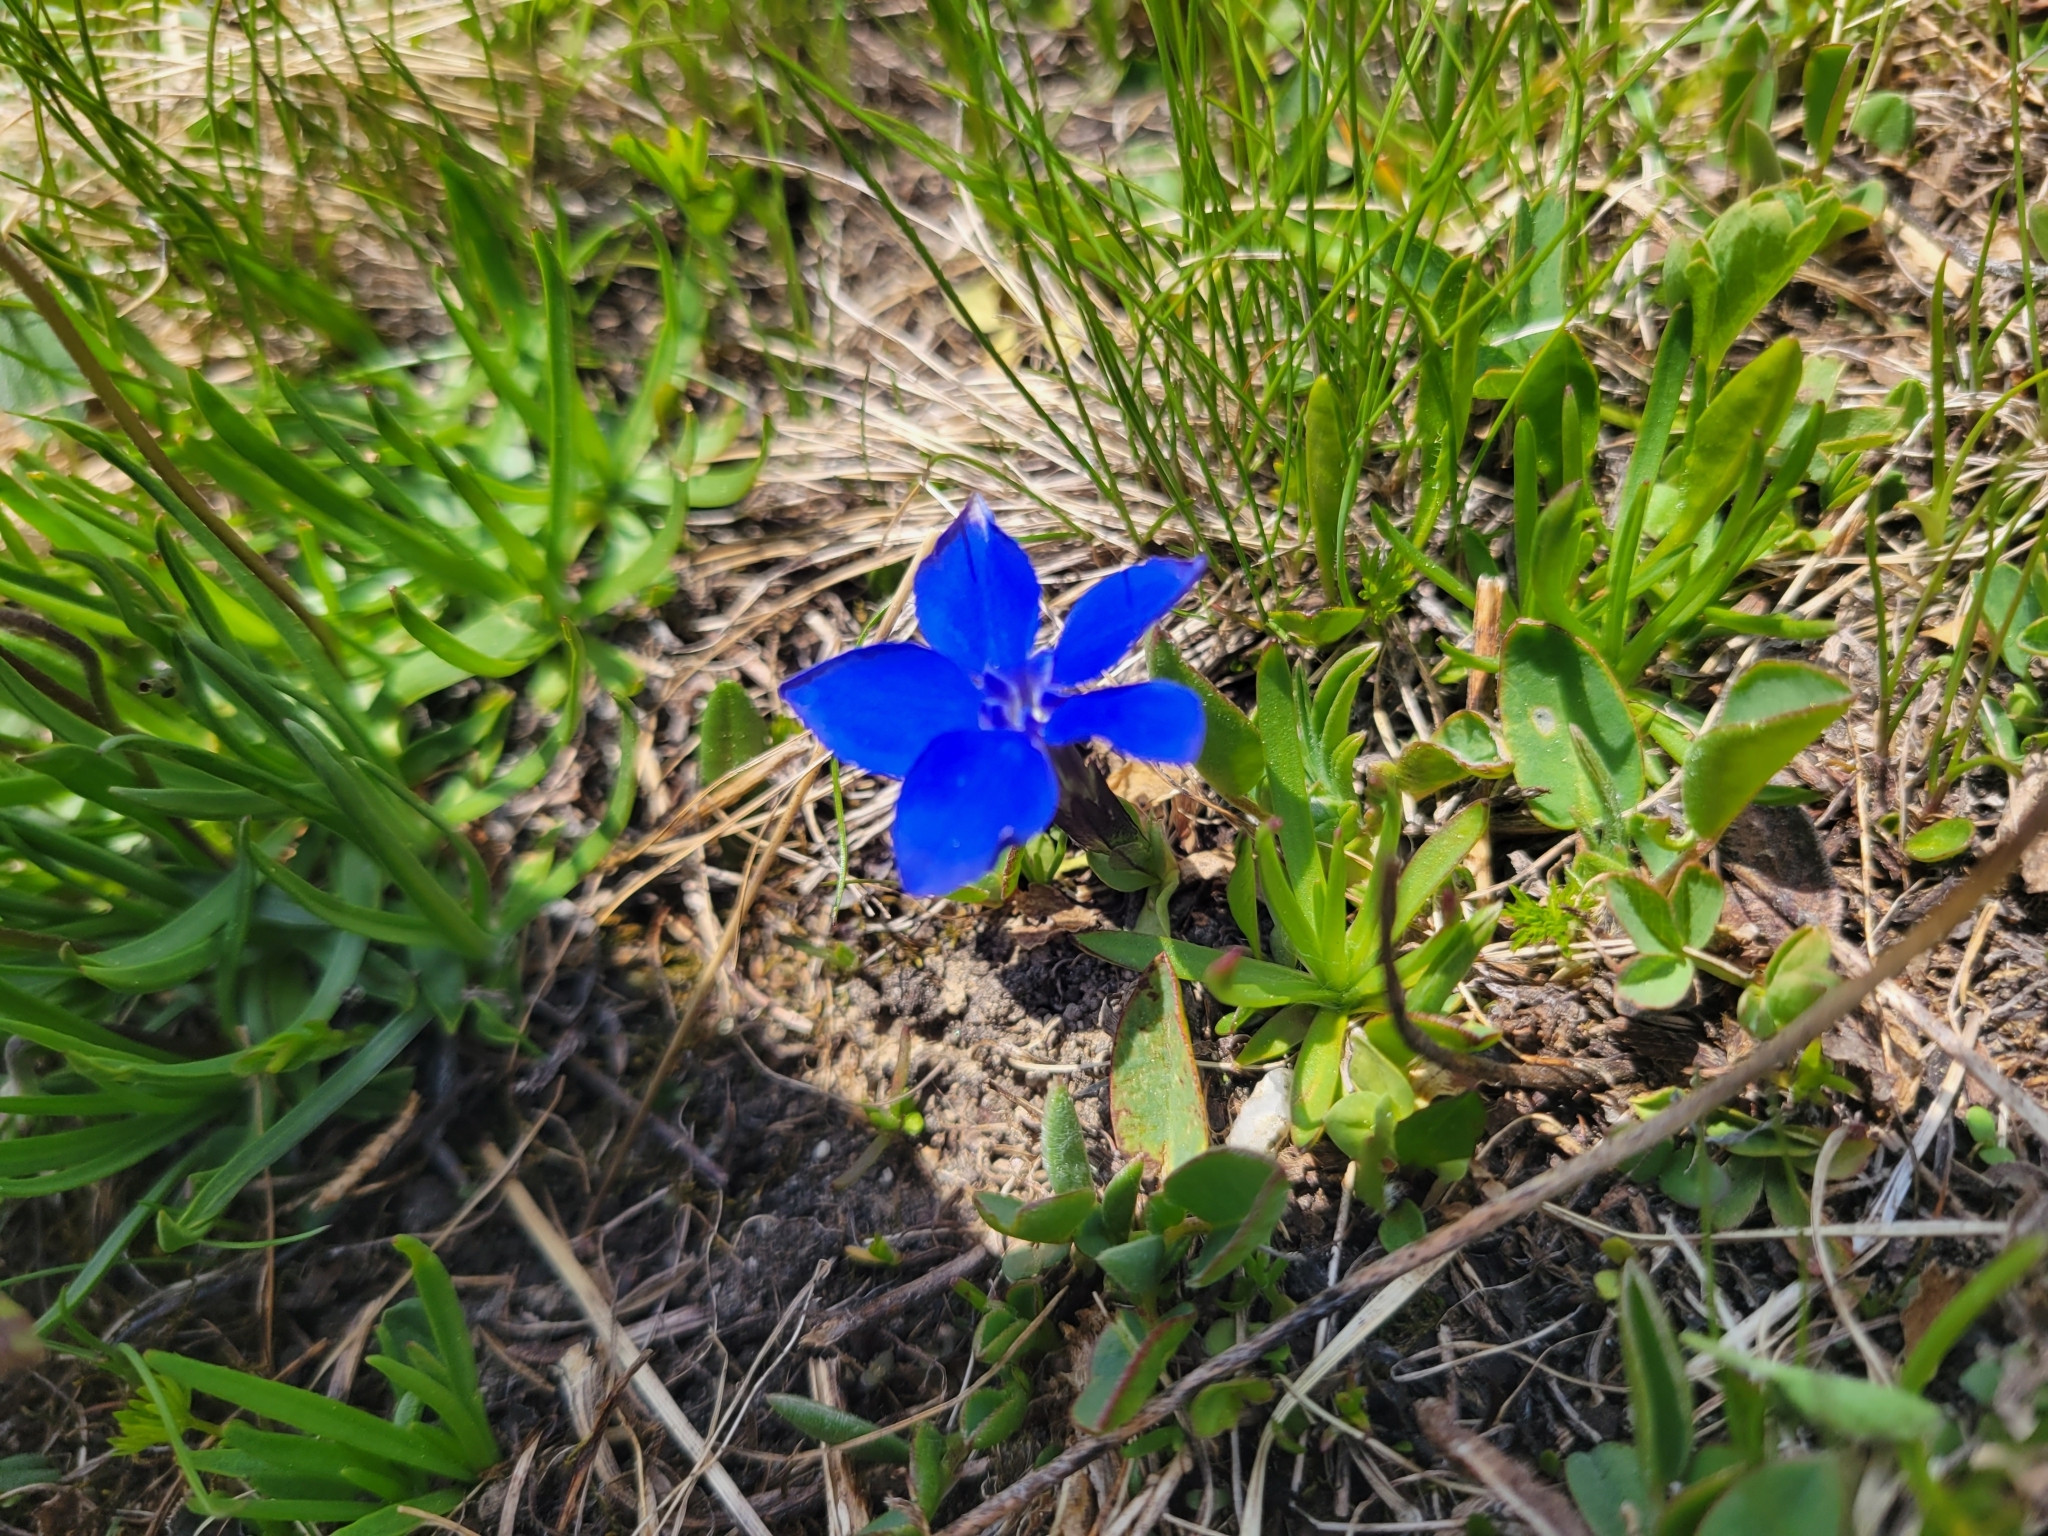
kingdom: Plantae
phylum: Tracheophyta
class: Magnoliopsida
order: Gentianales
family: Gentianaceae
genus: Gentiana
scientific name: Gentiana brachyphylla
